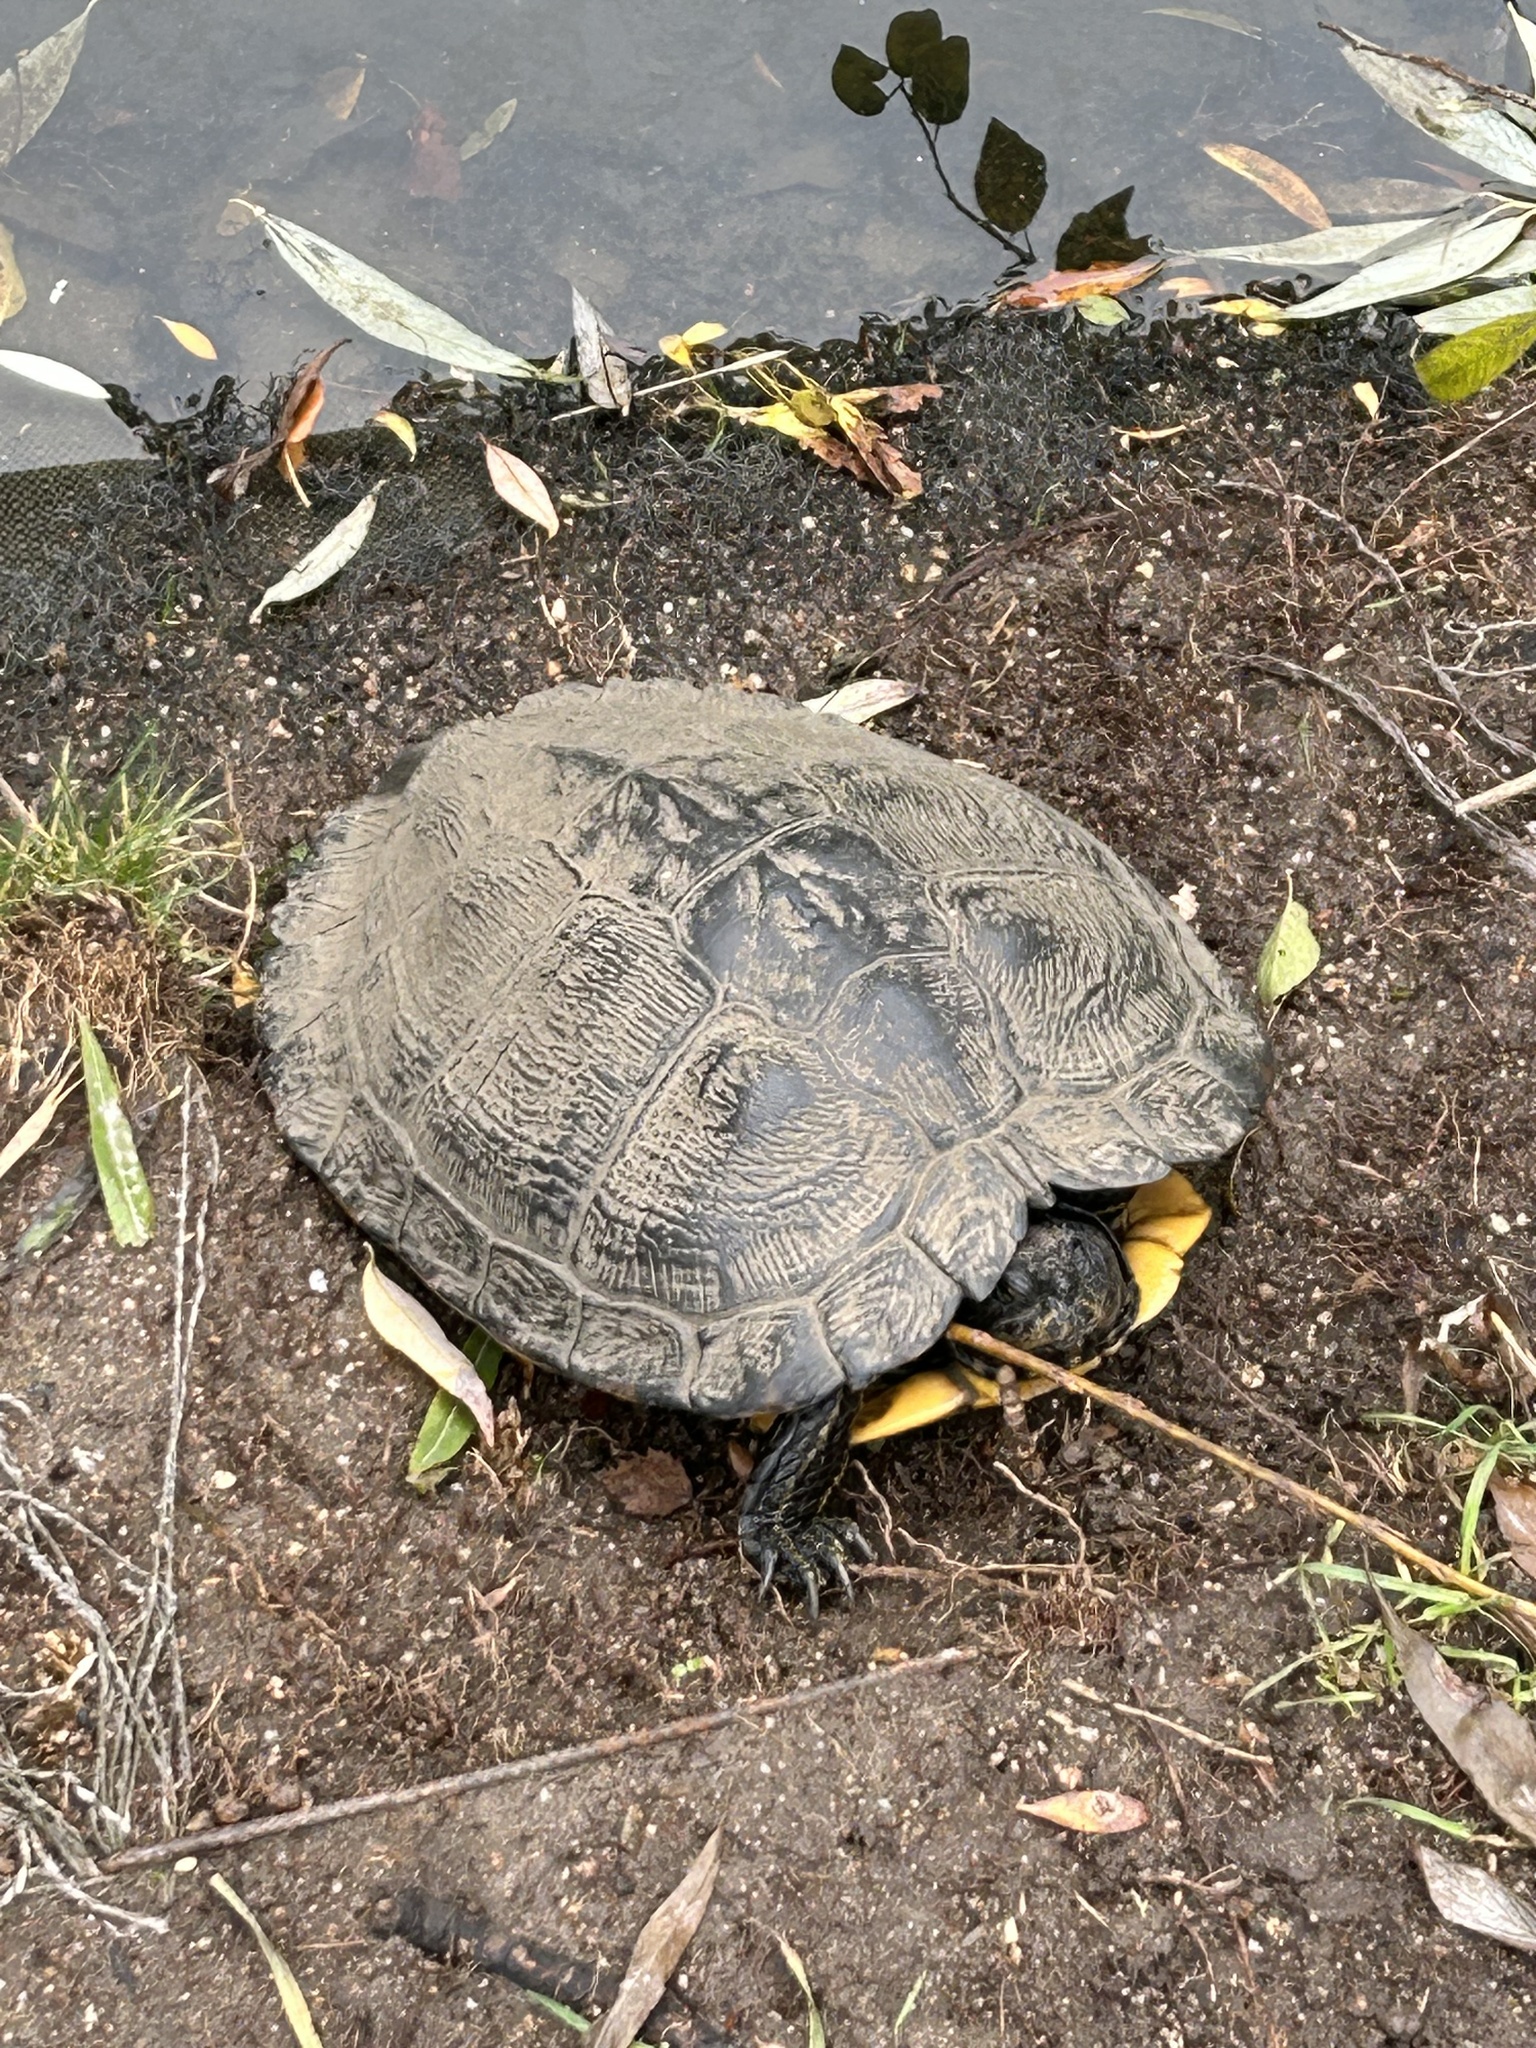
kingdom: Animalia
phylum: Chordata
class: Testudines
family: Emydidae
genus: Trachemys
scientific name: Trachemys scripta
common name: Slider
